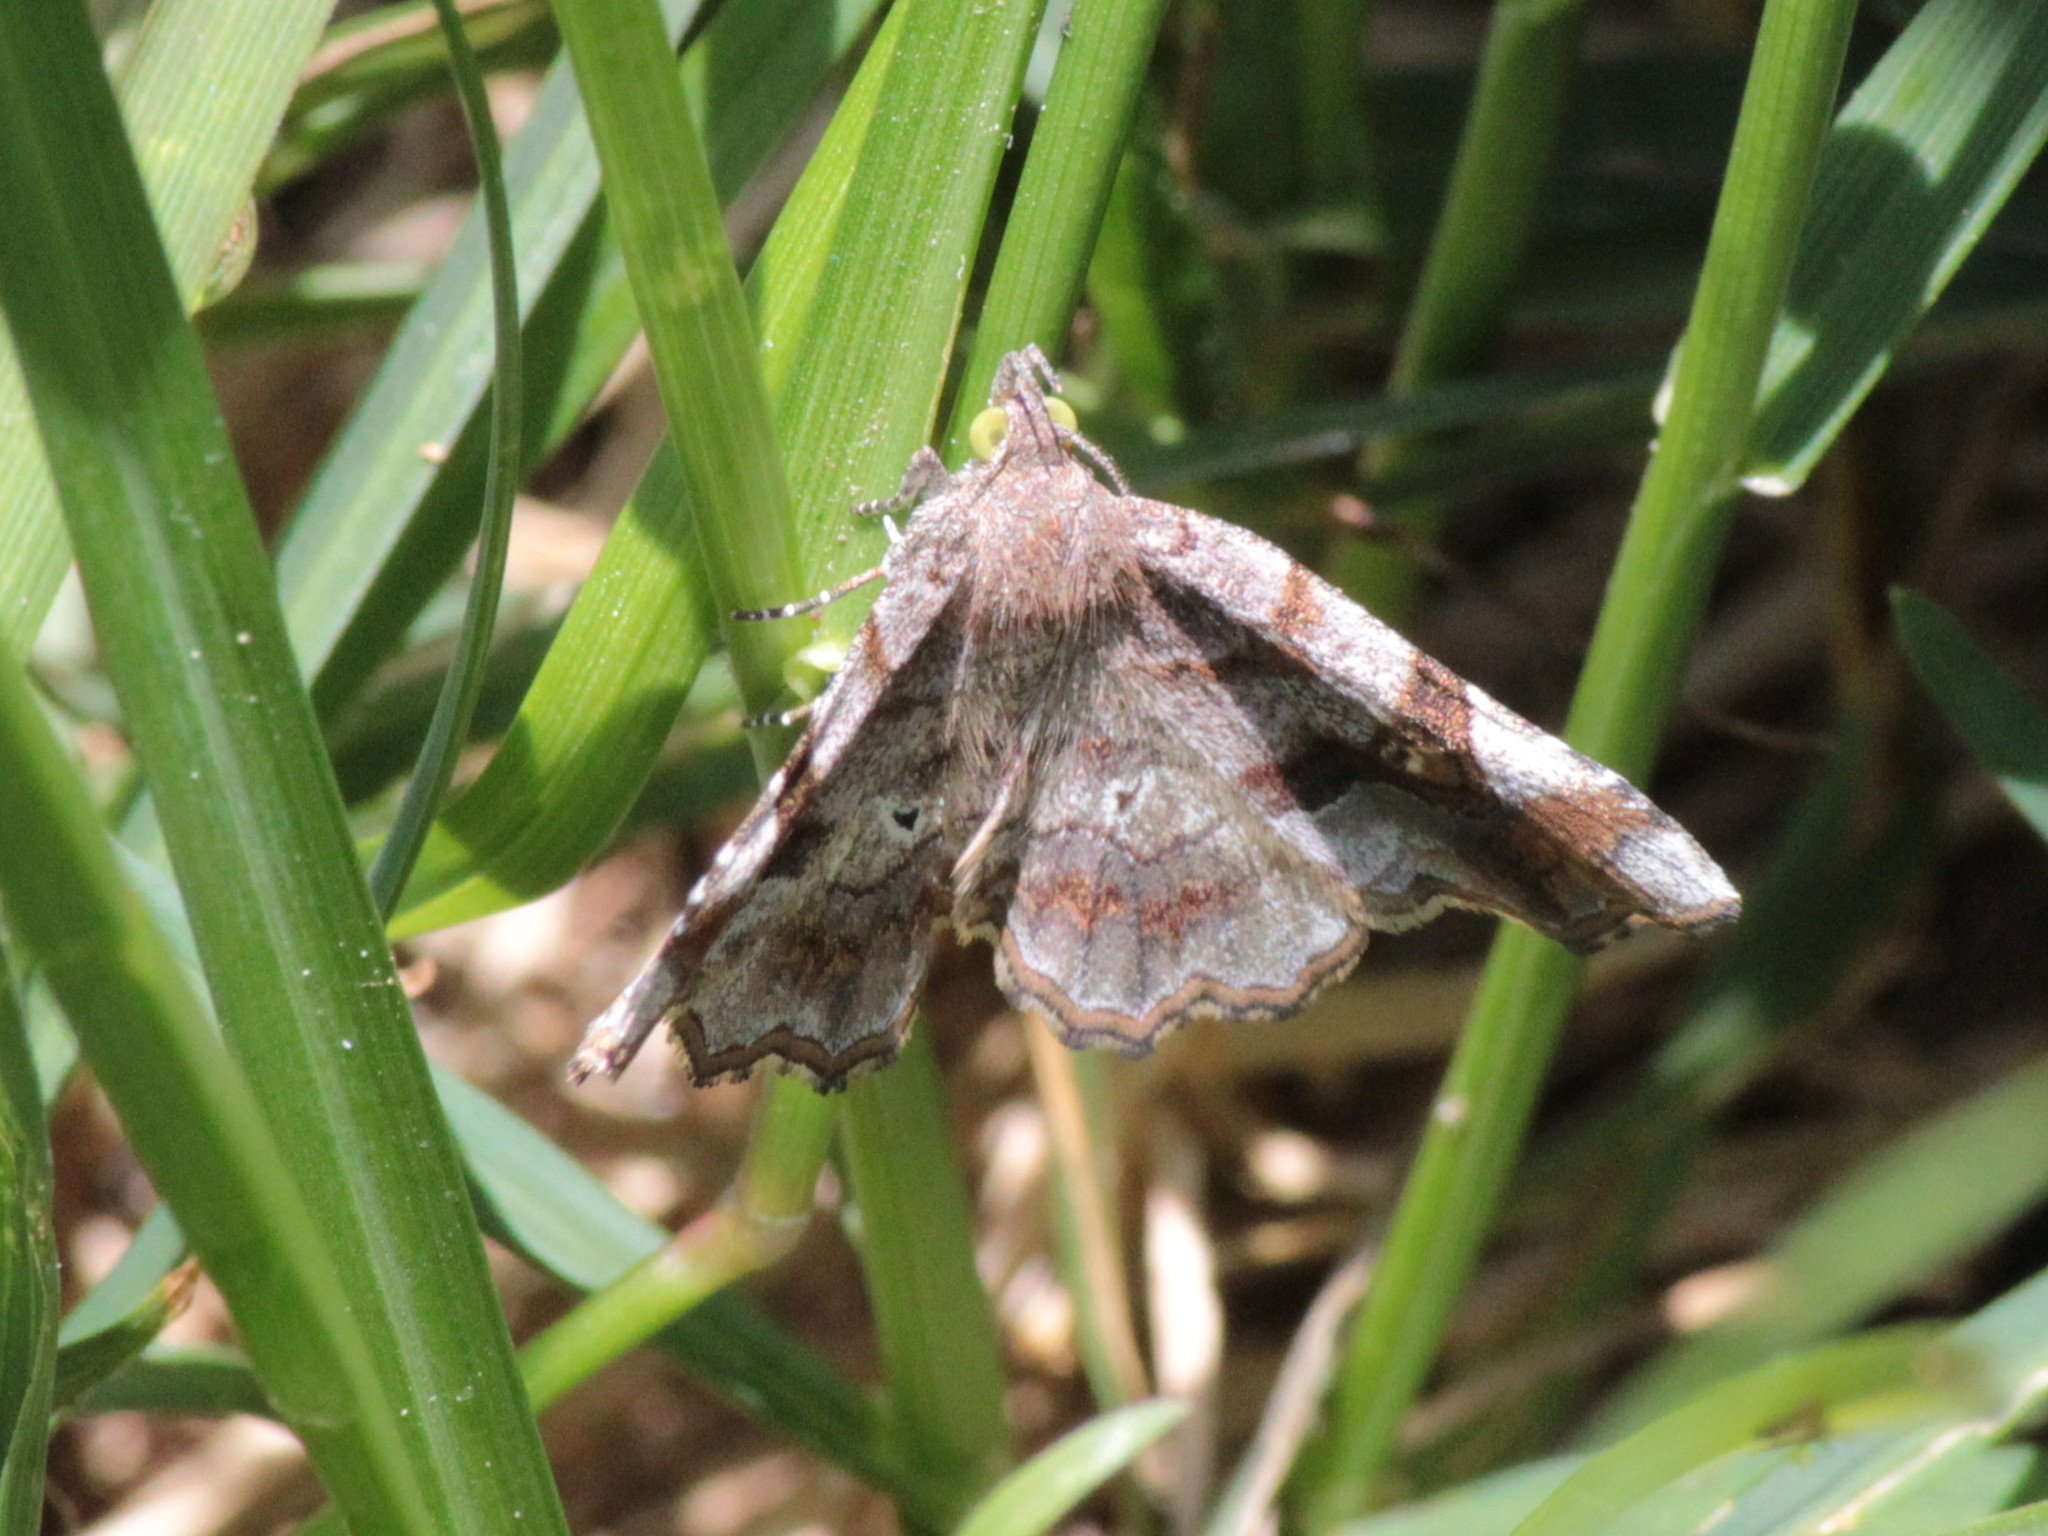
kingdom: Animalia
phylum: Arthropoda
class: Insecta
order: Lepidoptera
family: Erebidae
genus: Pangrapta
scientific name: Pangrapta decoralis
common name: Decorated owlet
